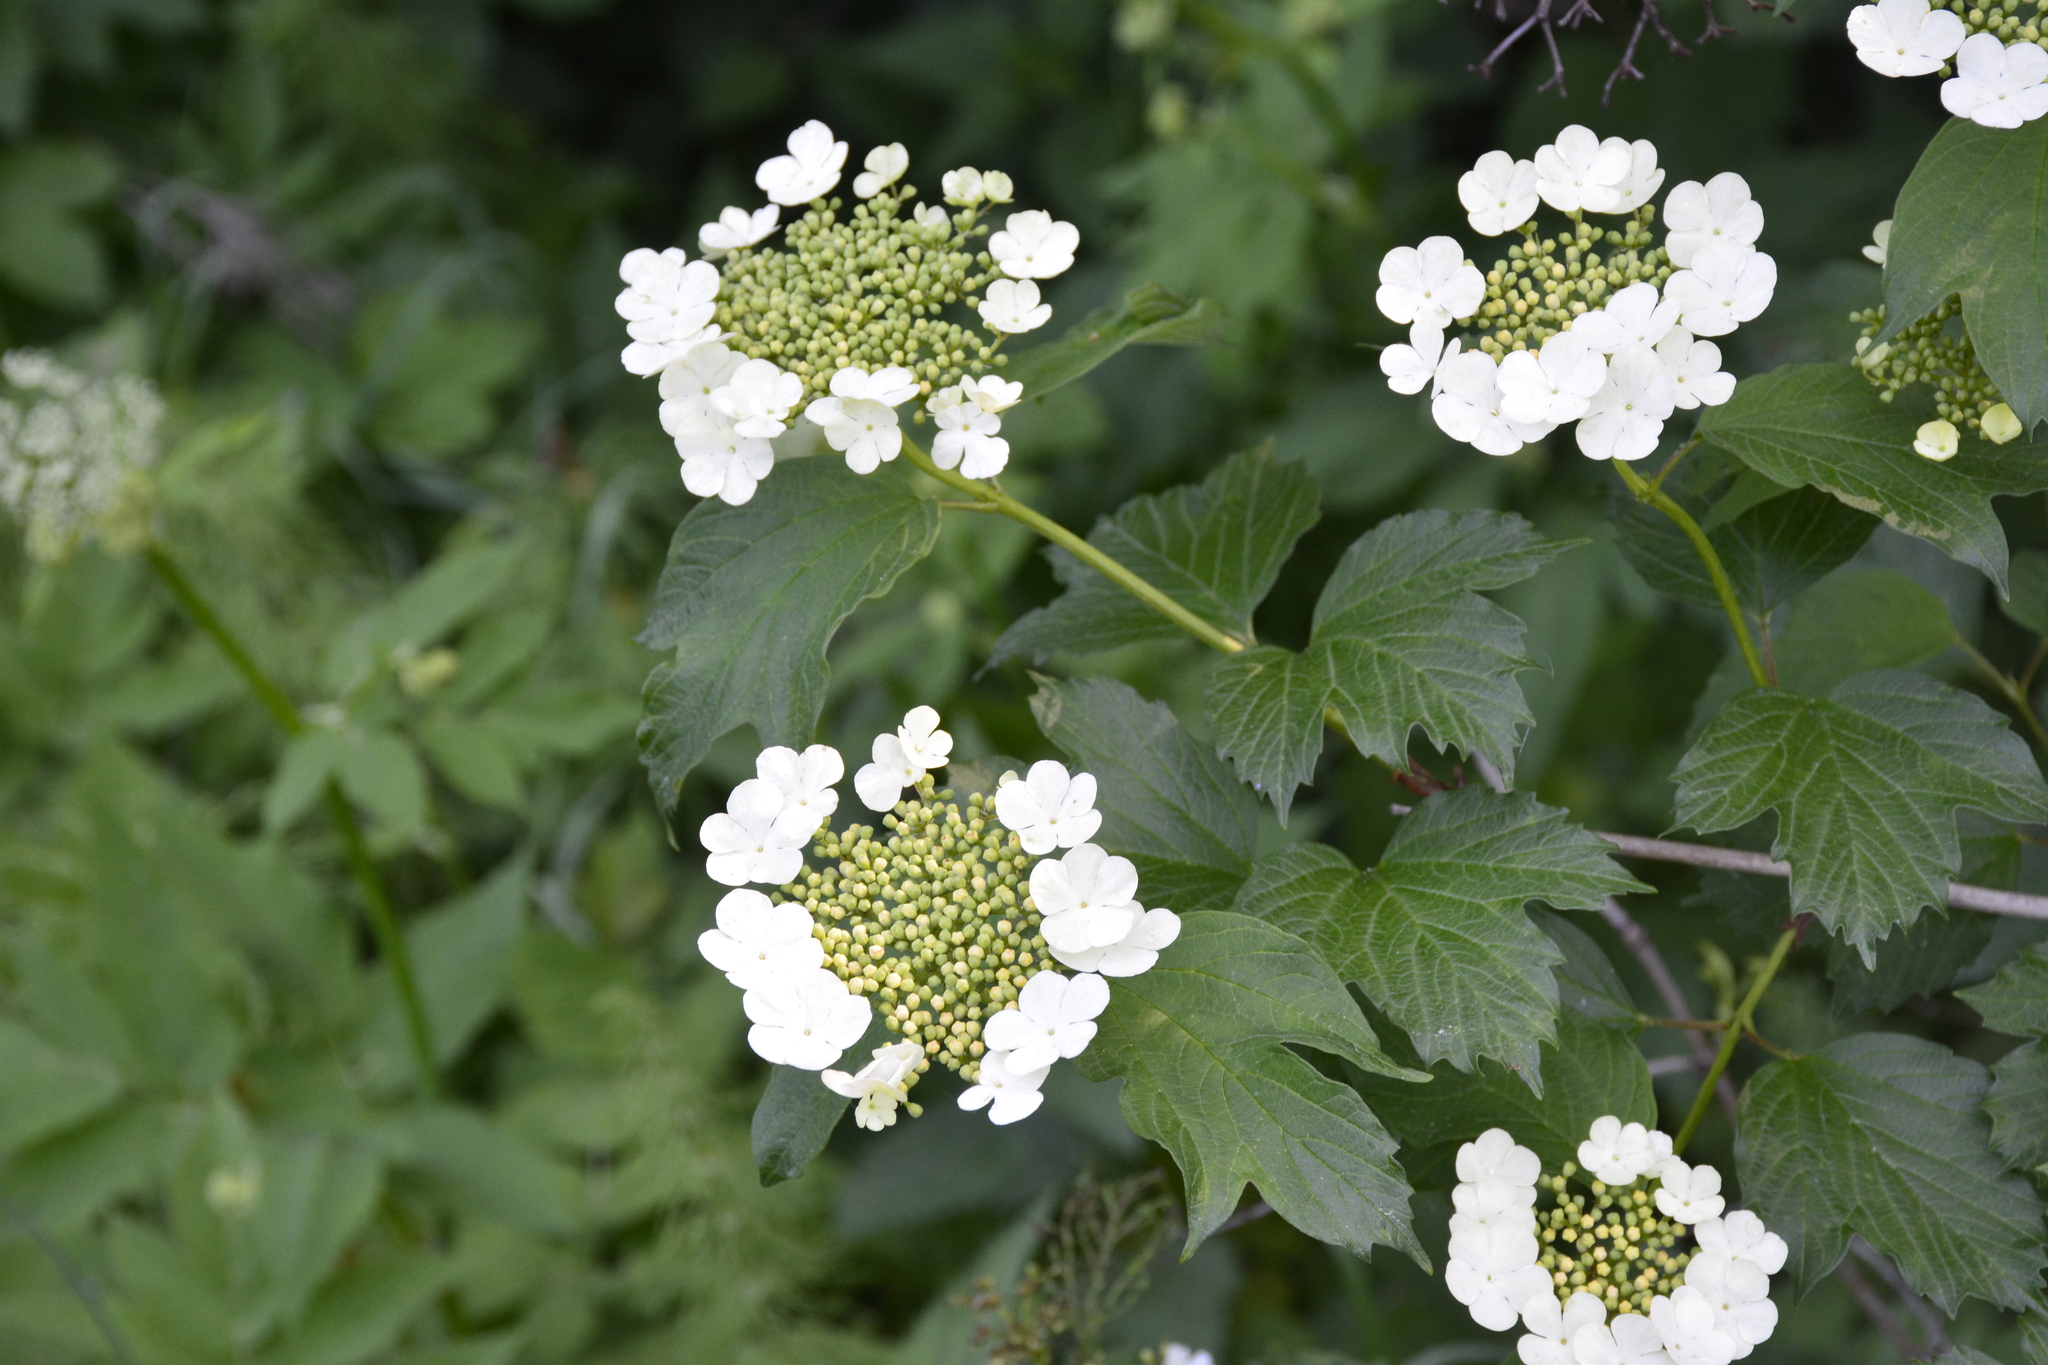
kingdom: Plantae
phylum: Tracheophyta
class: Magnoliopsida
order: Dipsacales
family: Viburnaceae
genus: Viburnum
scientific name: Viburnum opulus
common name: Guelder-rose
